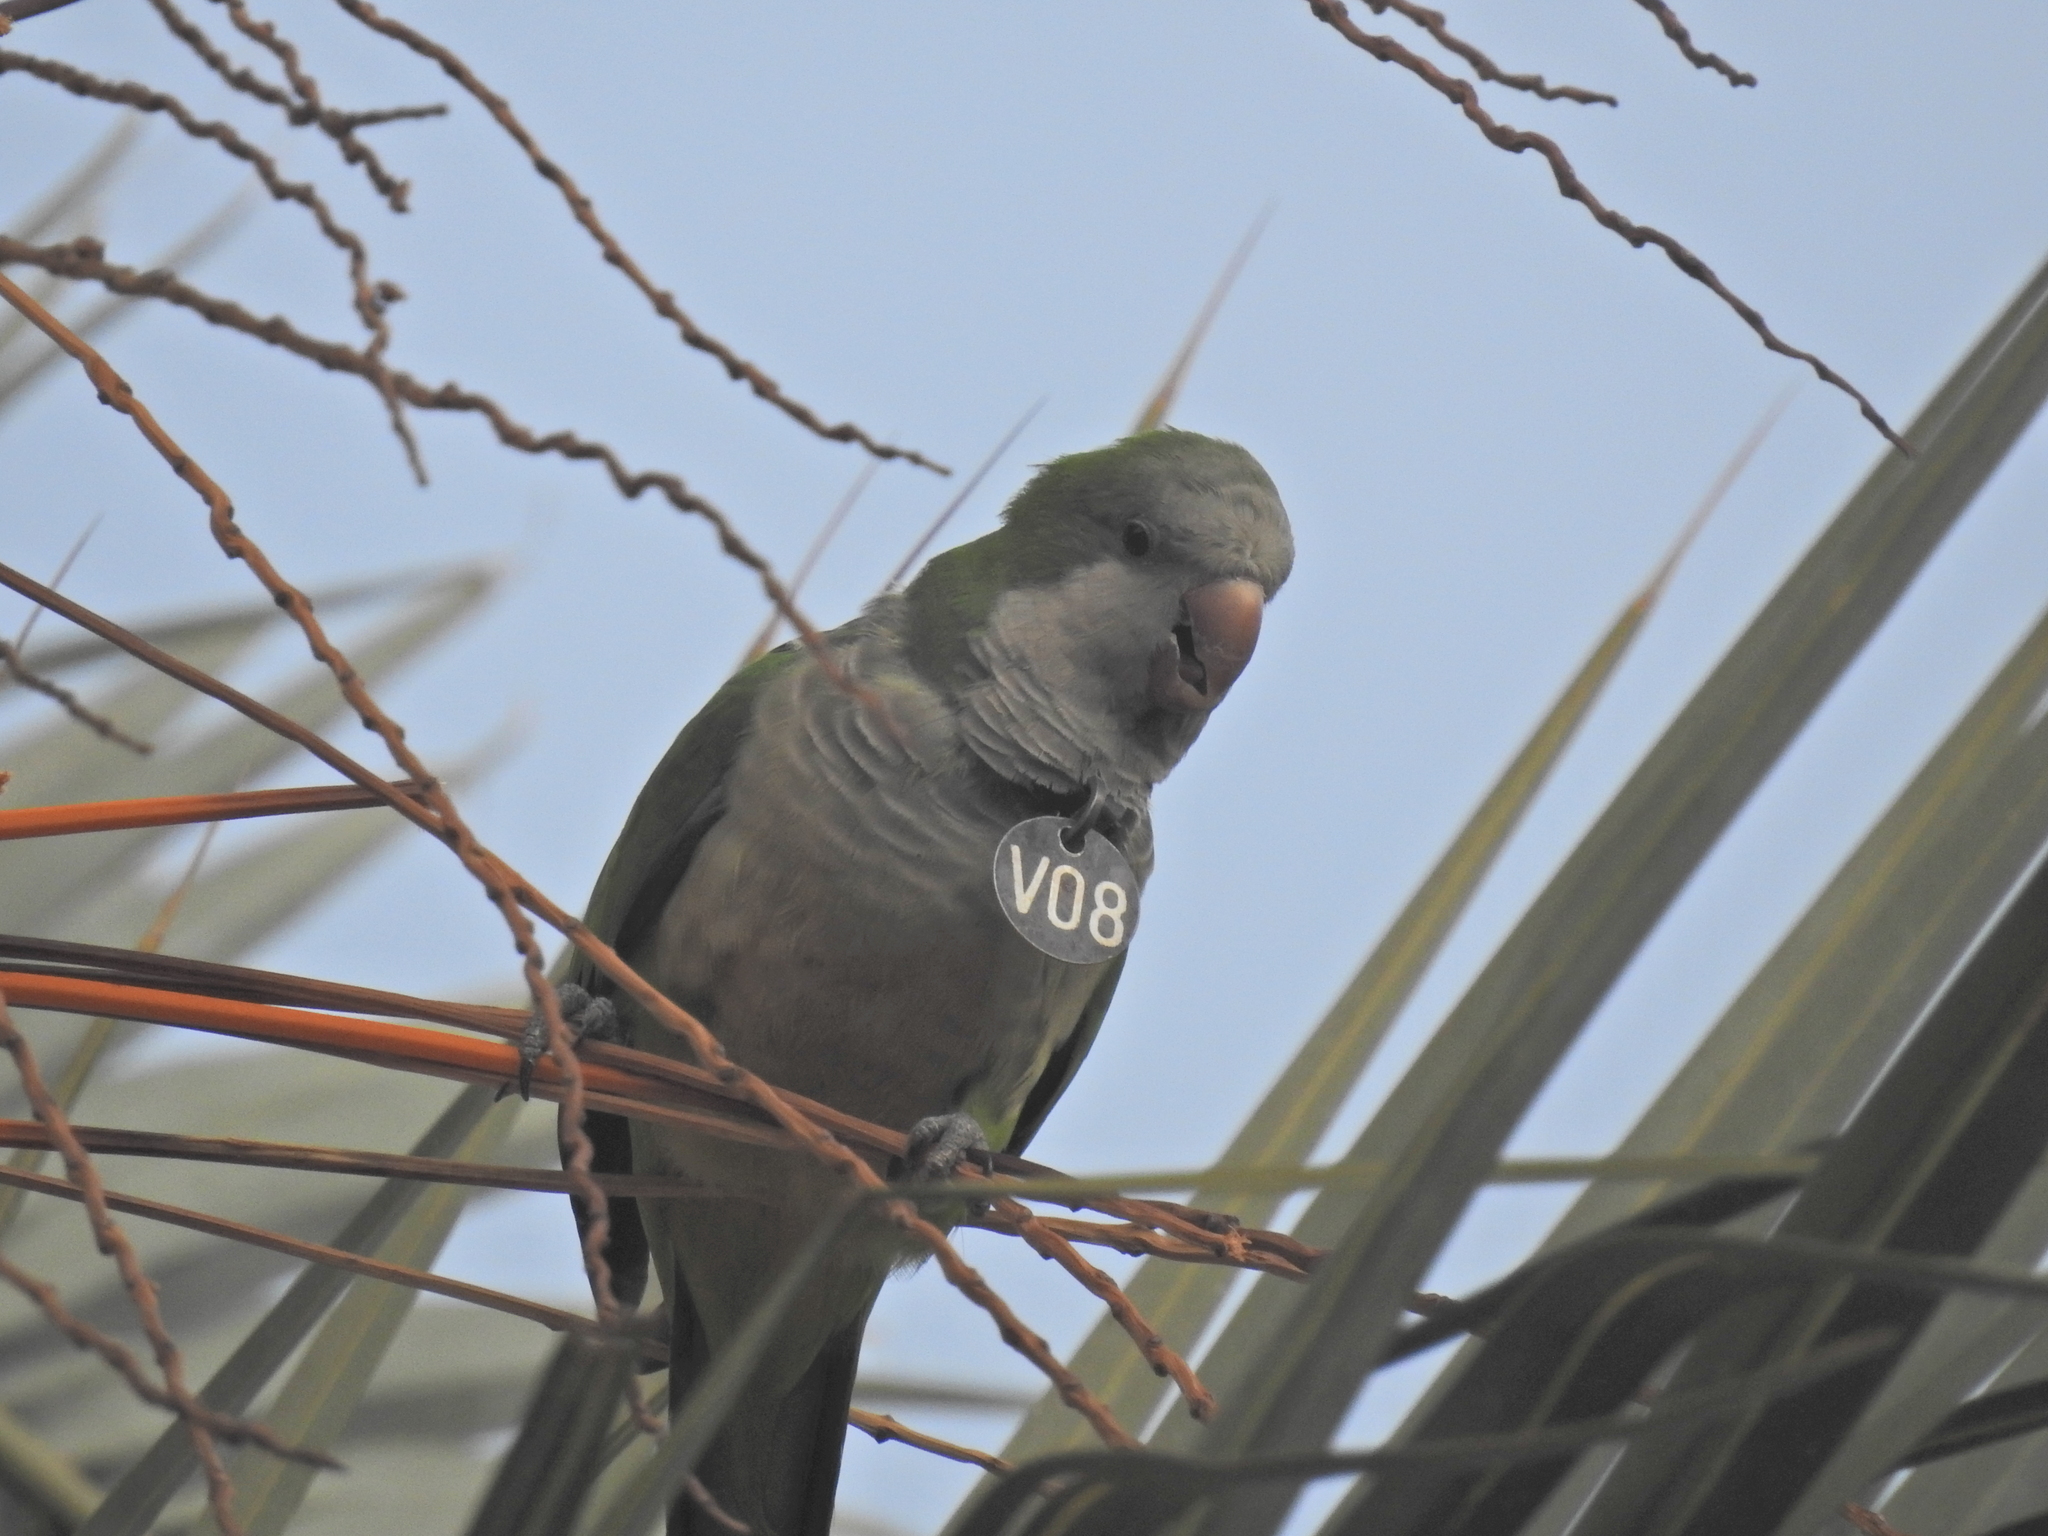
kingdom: Animalia
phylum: Chordata
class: Aves
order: Psittaciformes
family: Psittacidae
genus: Myiopsitta
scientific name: Myiopsitta monachus
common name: Monk parakeet
